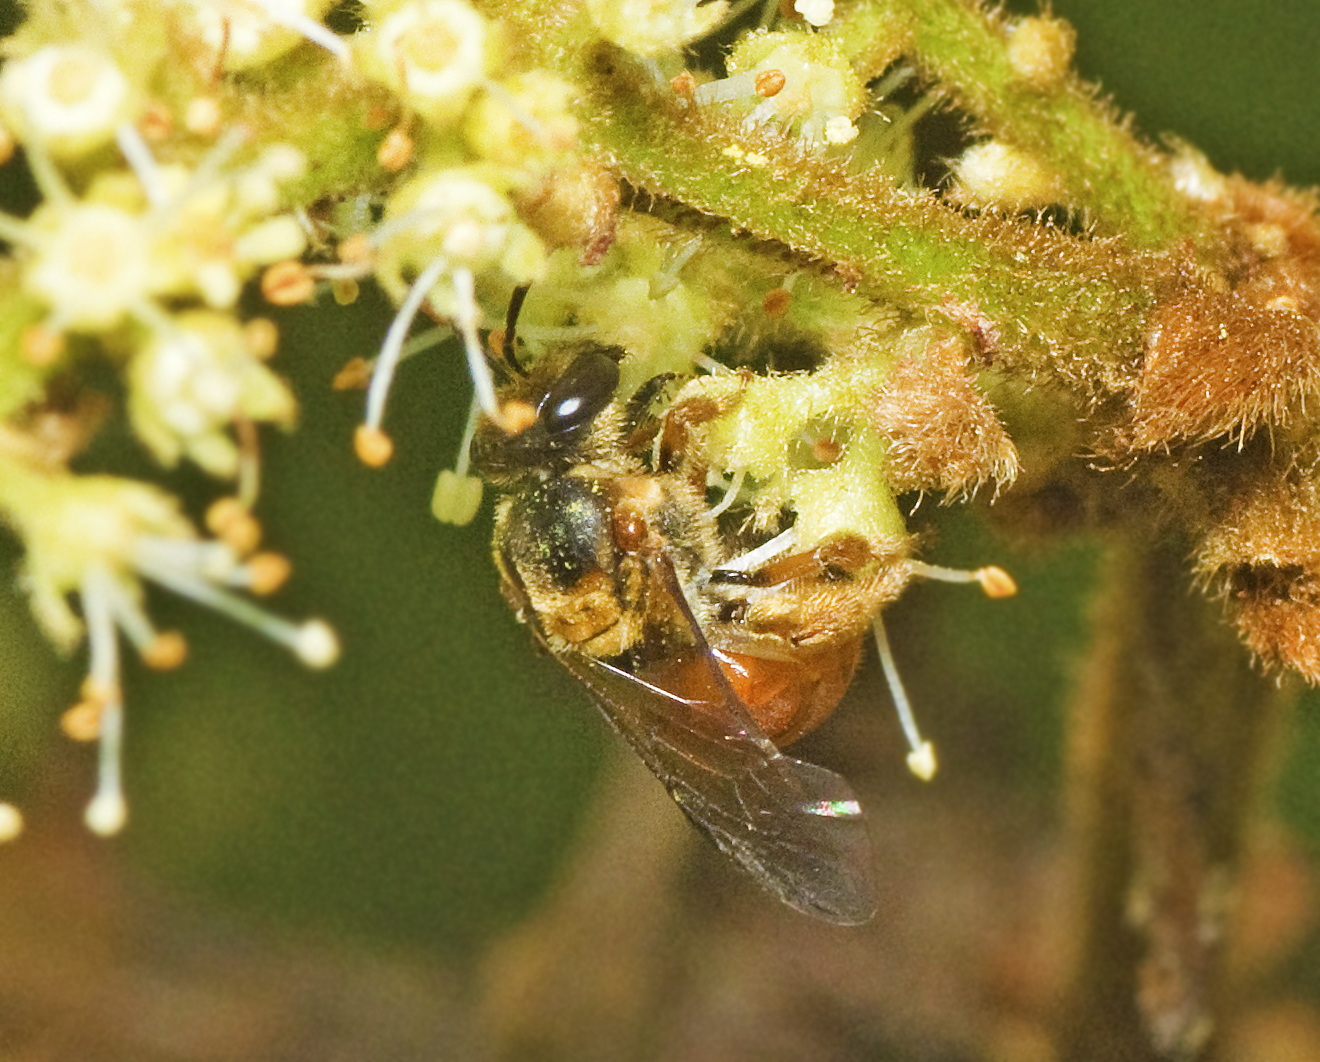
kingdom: Animalia
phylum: Arthropoda
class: Insecta
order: Hymenoptera
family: Halictidae
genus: Lasioglossum
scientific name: Lasioglossum leichardti
